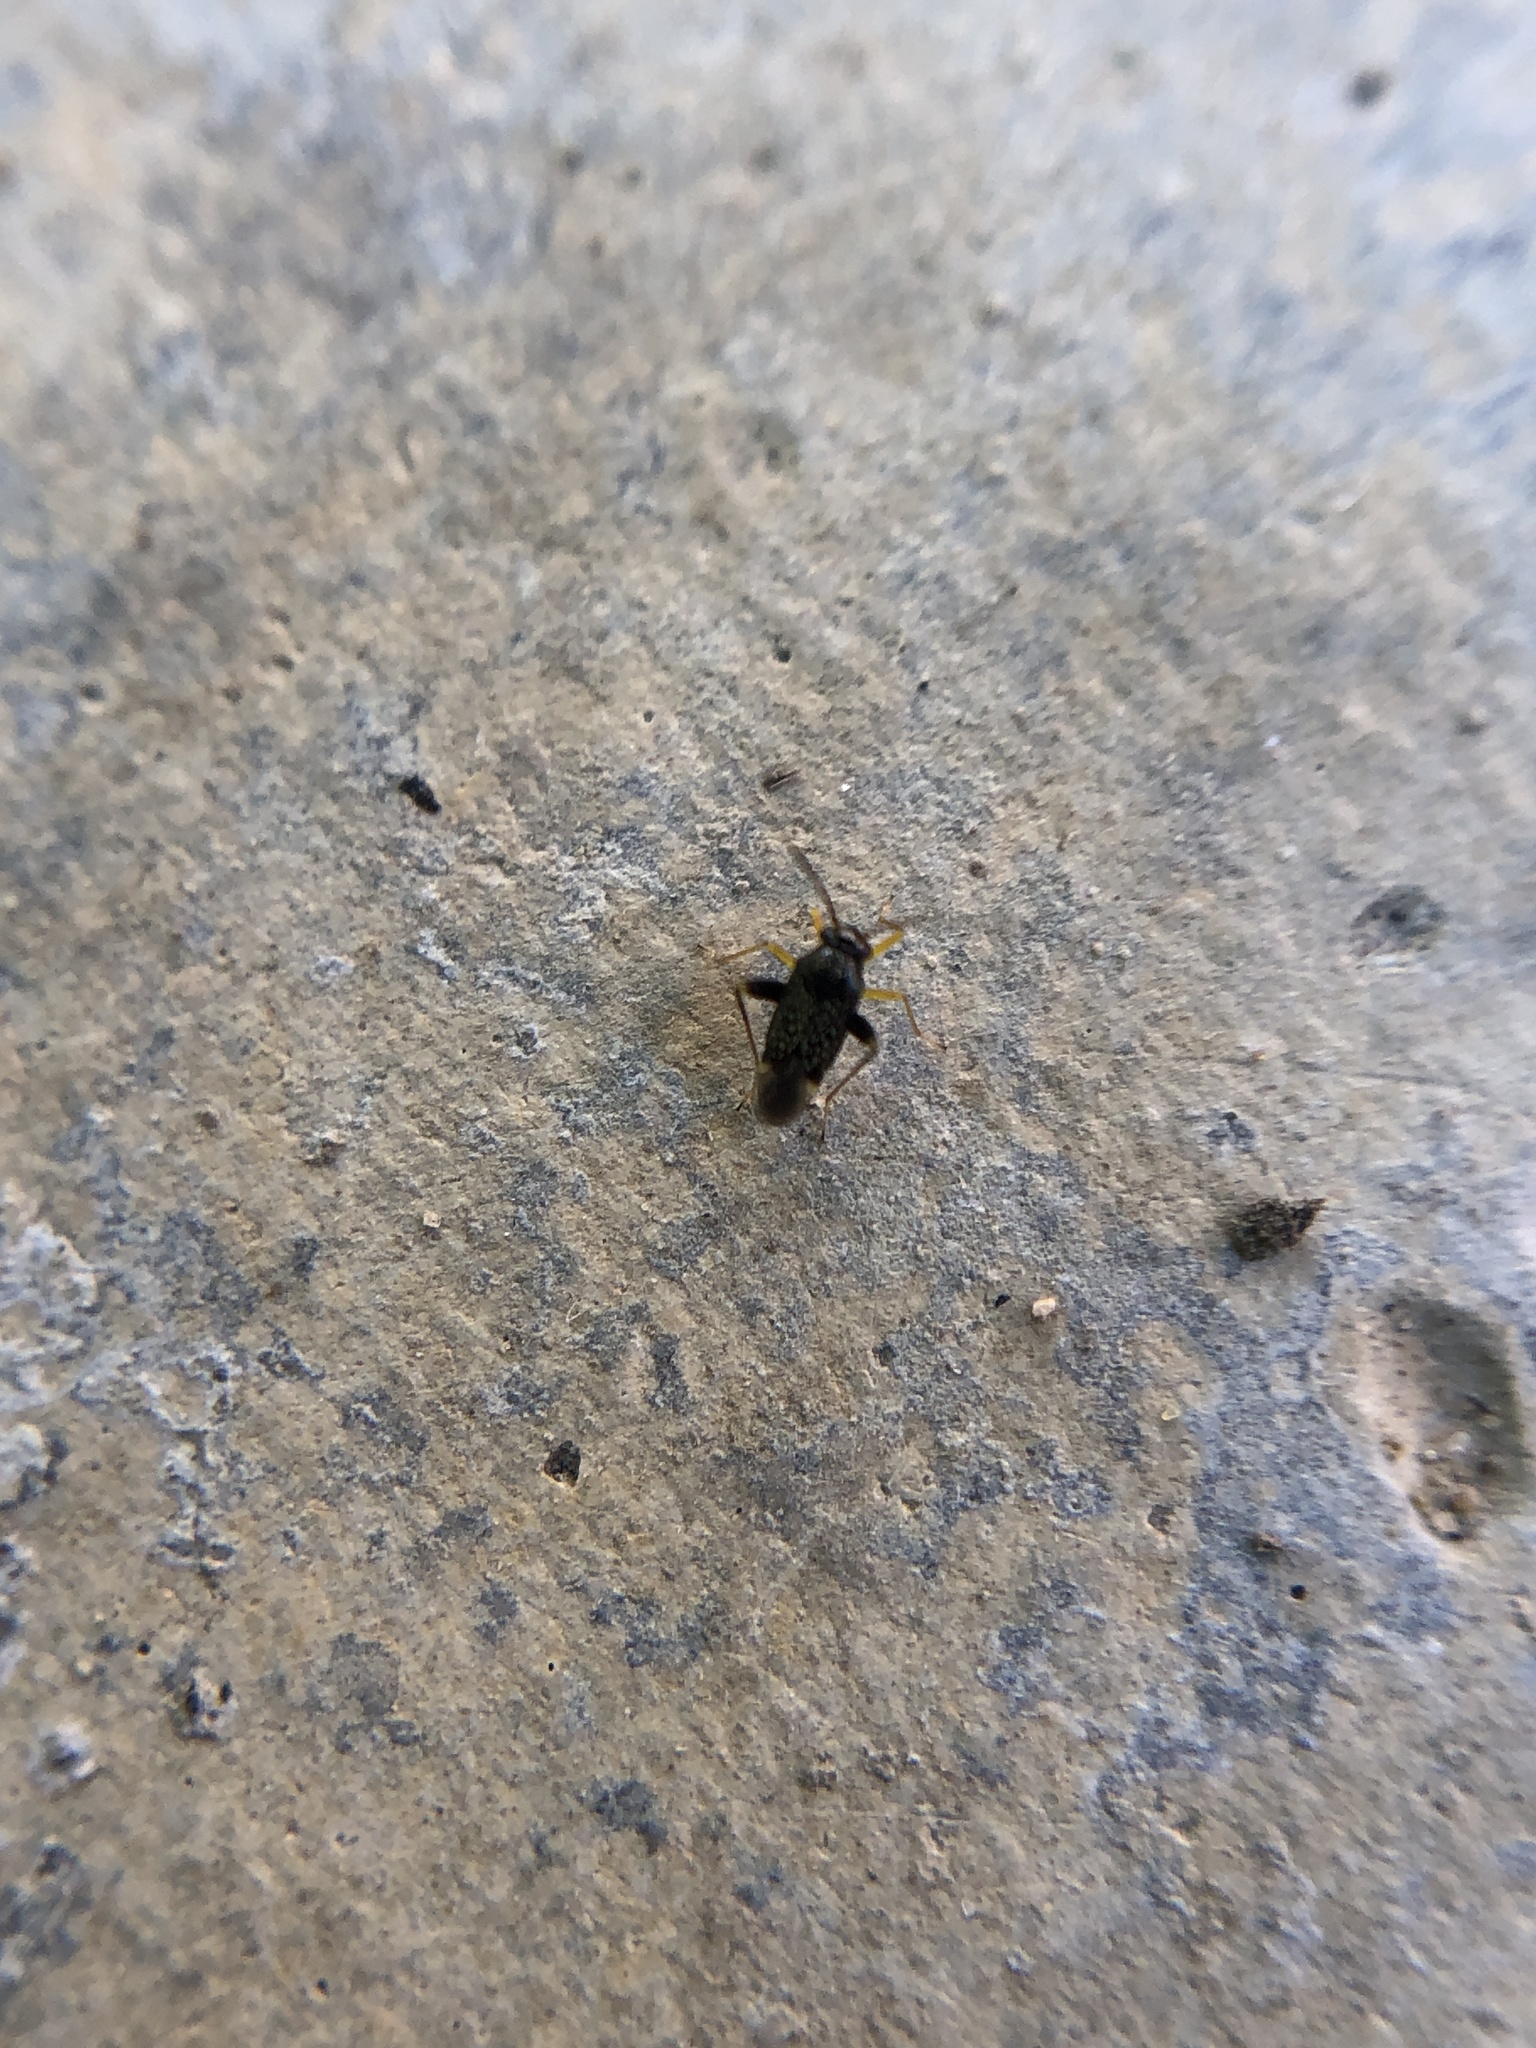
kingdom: Animalia
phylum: Arthropoda
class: Insecta
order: Hemiptera
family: Miridae
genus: Microtechnites
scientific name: Microtechnites bractatus
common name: Garden fleahopper
